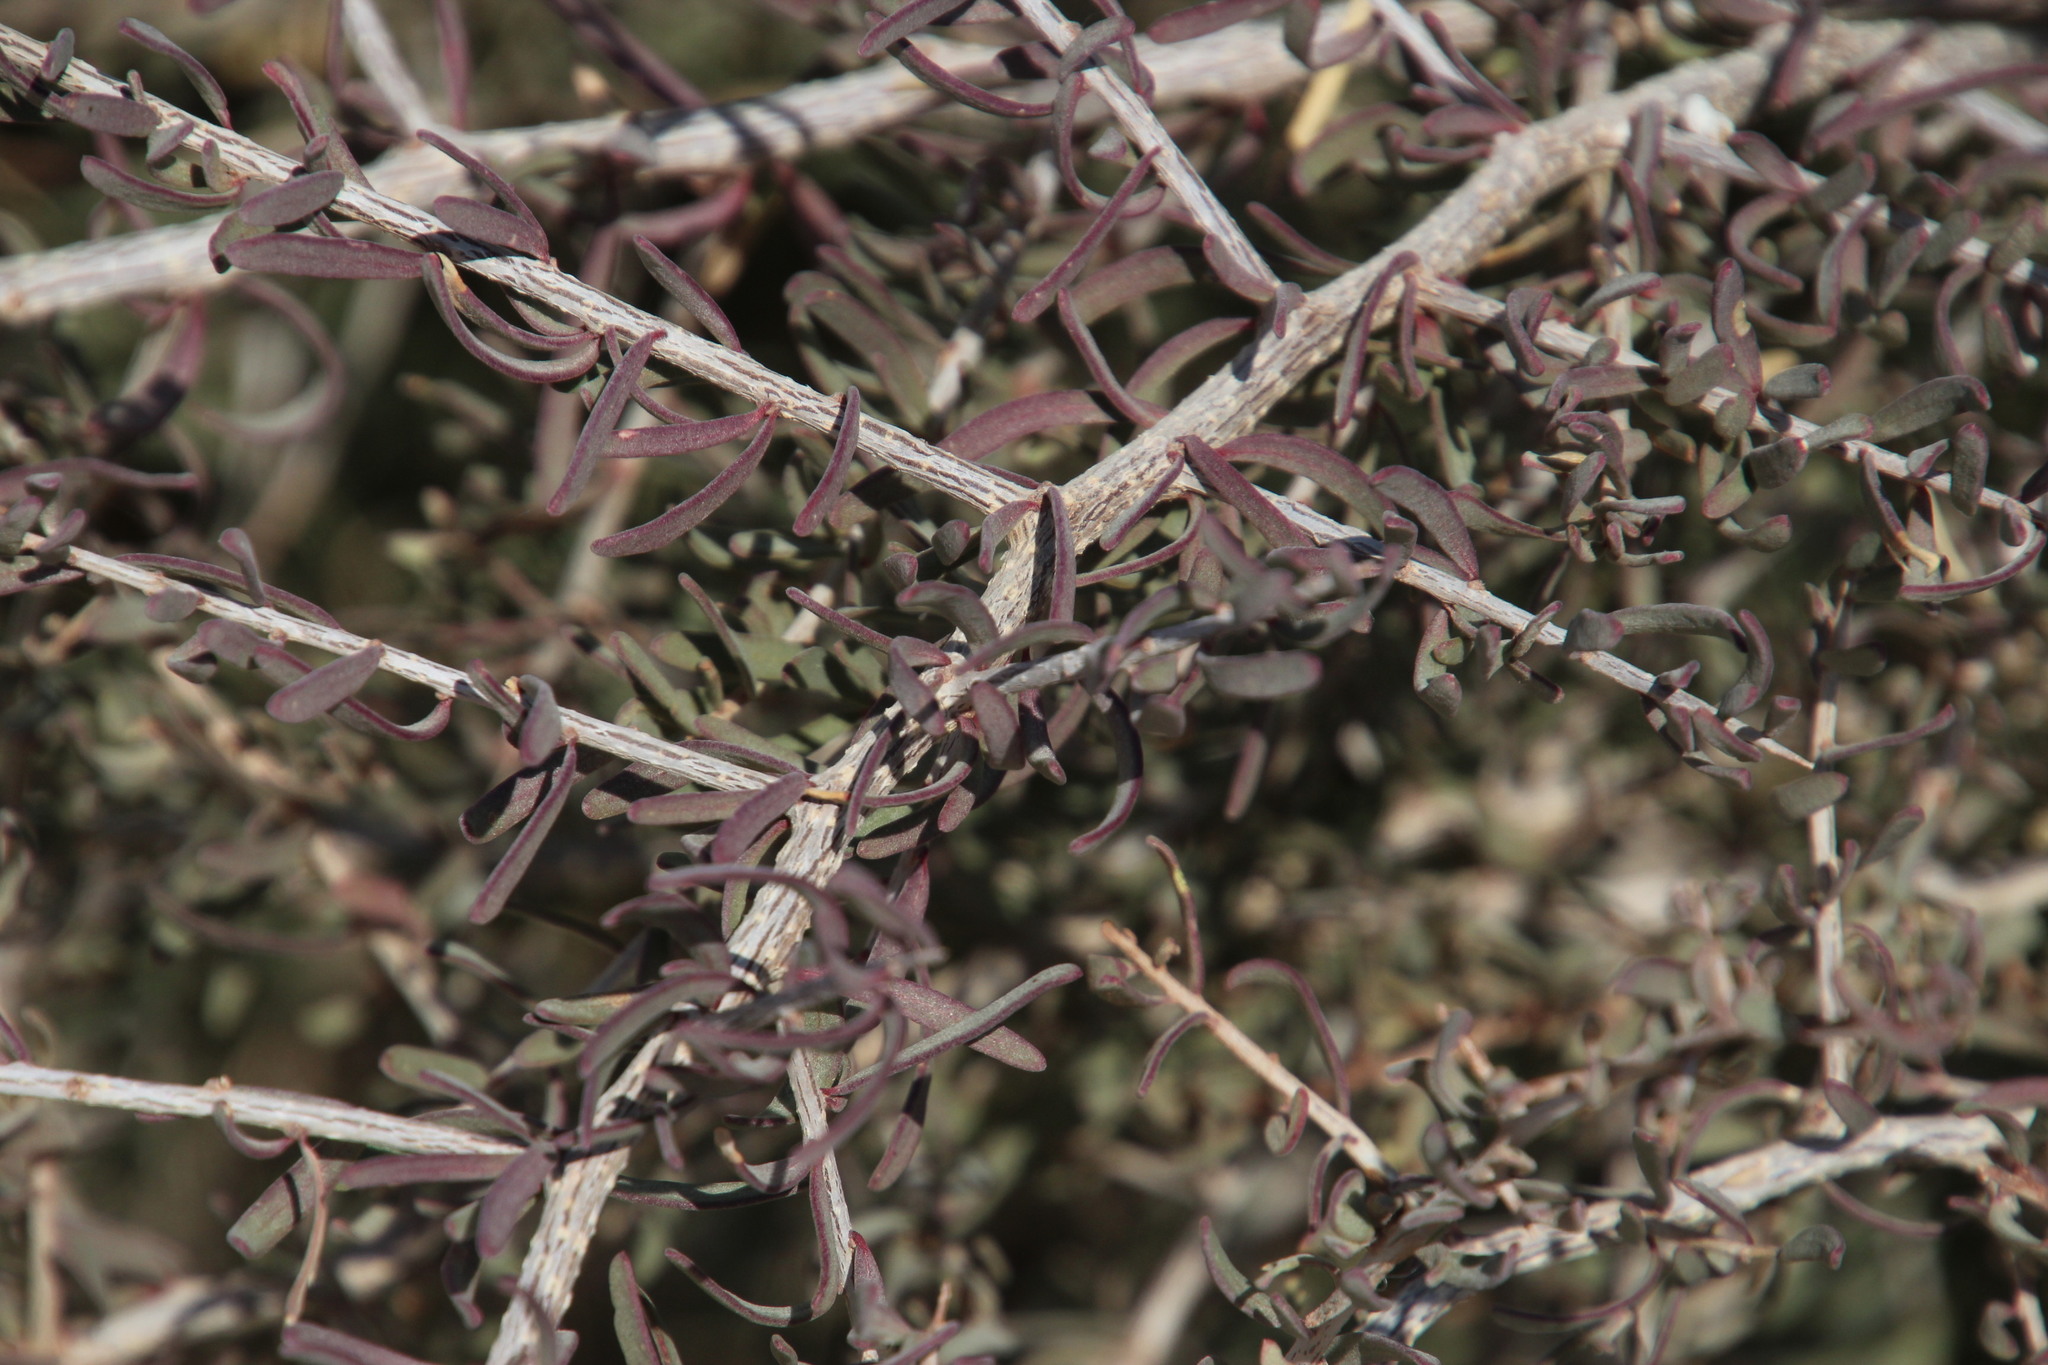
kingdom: Plantae
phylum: Tracheophyta
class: Magnoliopsida
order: Caryophyllales
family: Nyctaginaceae
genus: Phaeoptilum
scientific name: Phaeoptilum spinosum
